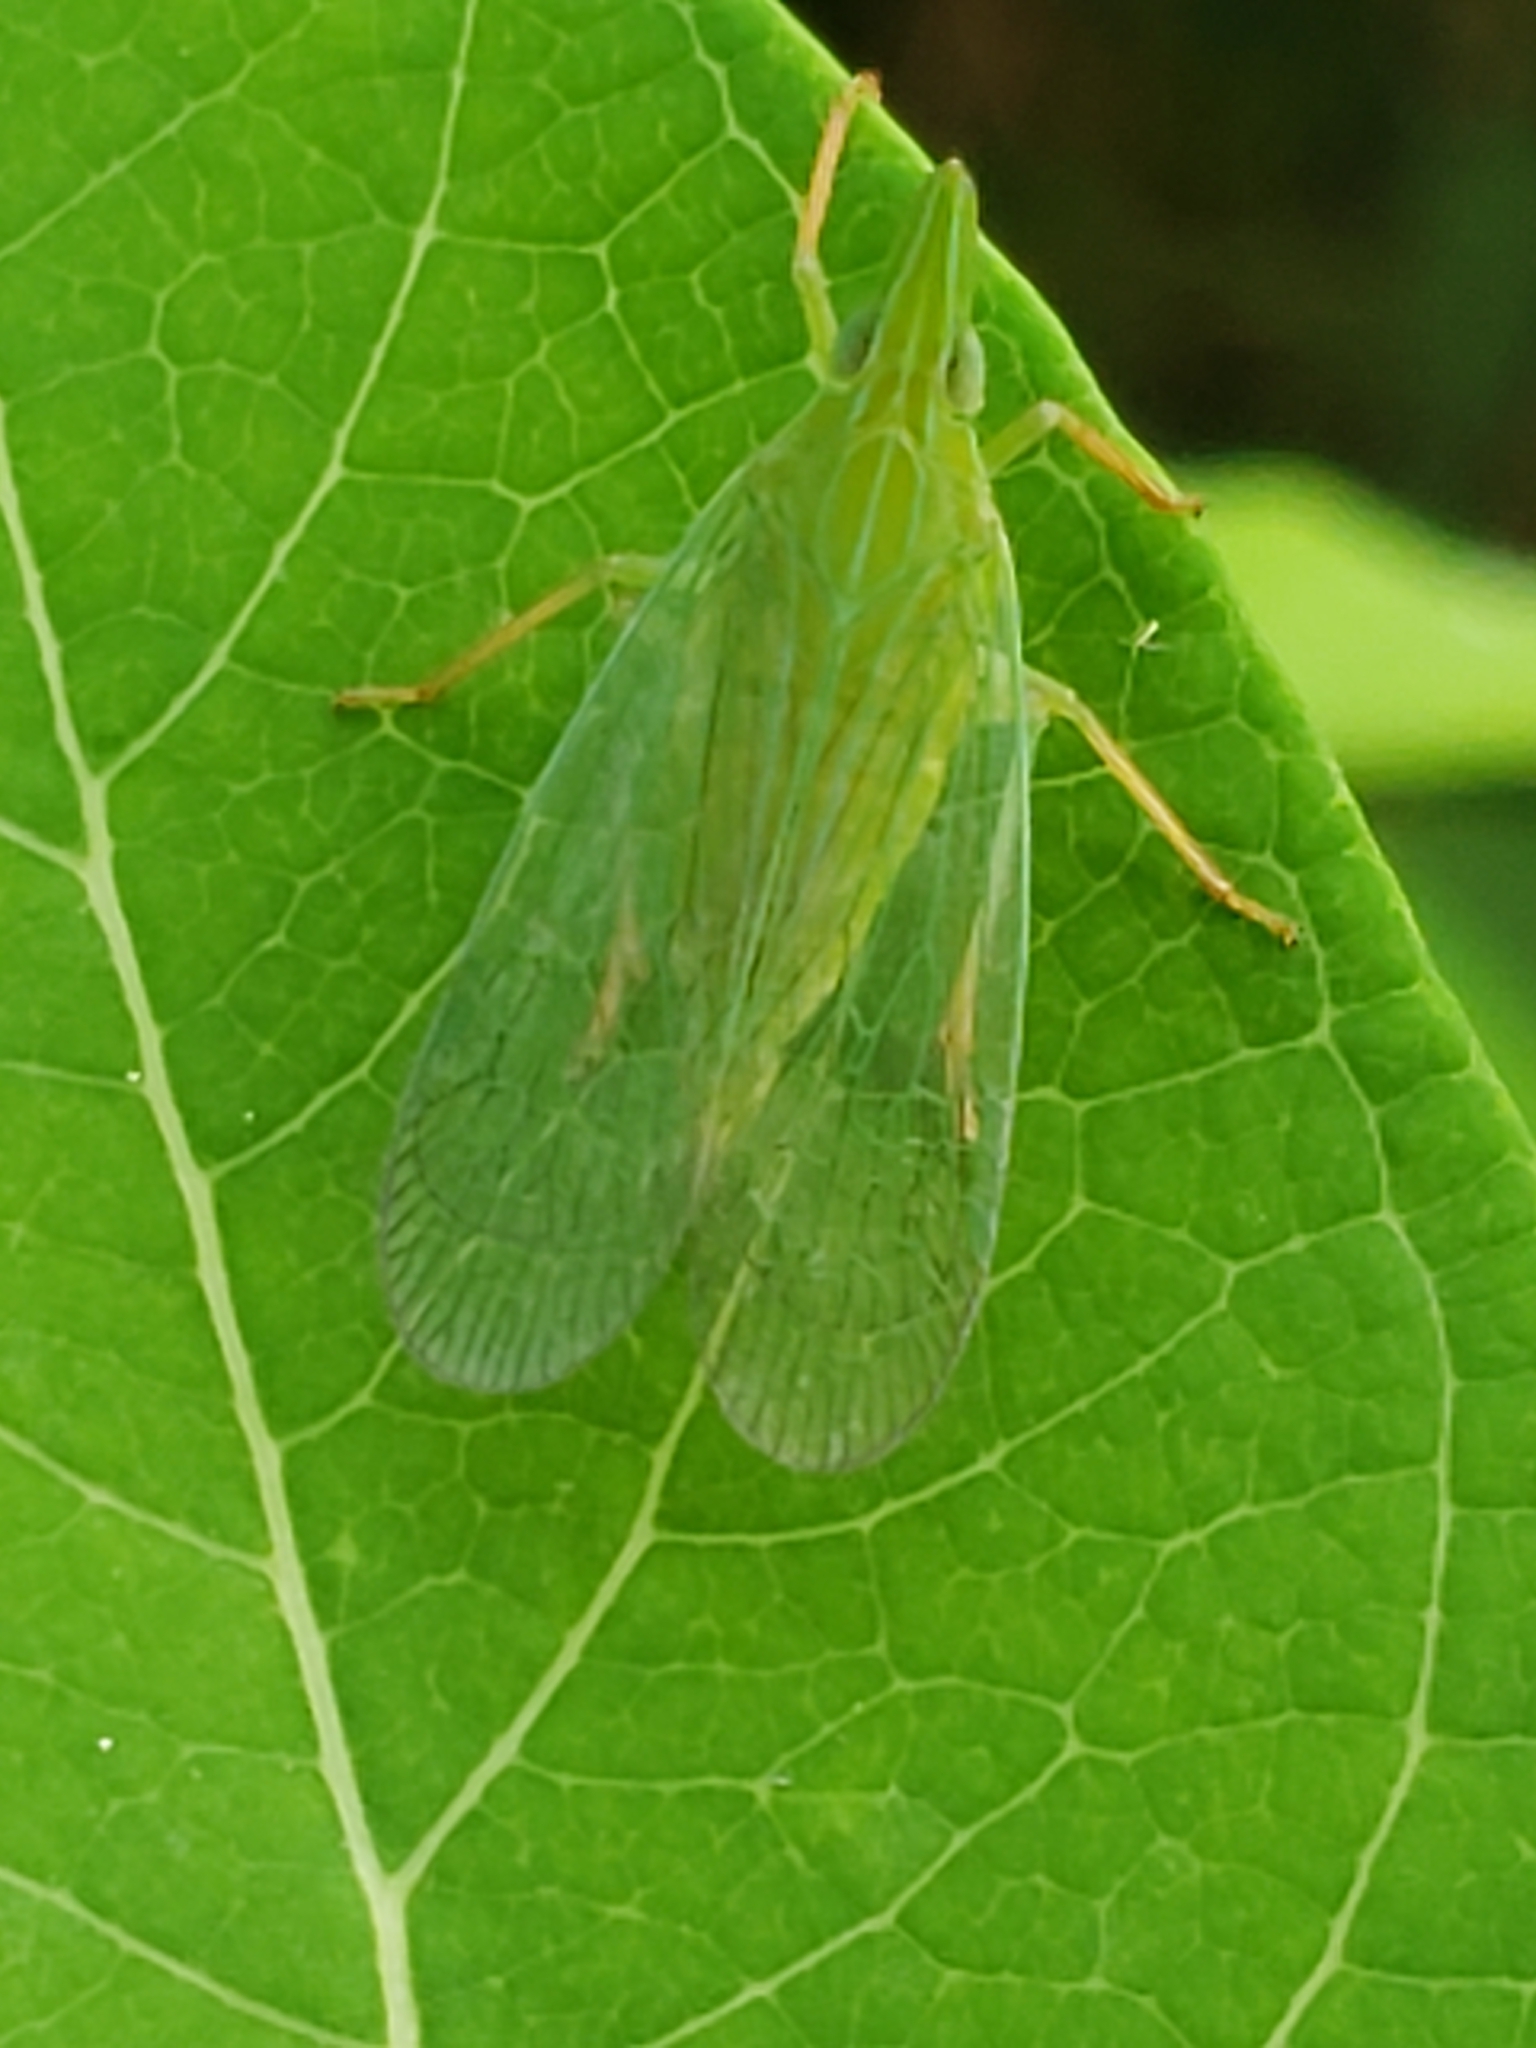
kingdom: Animalia
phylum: Arthropoda
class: Insecta
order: Hemiptera
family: Dictyopharidae
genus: Rhynchomitra
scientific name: Rhynchomitra microrhina
